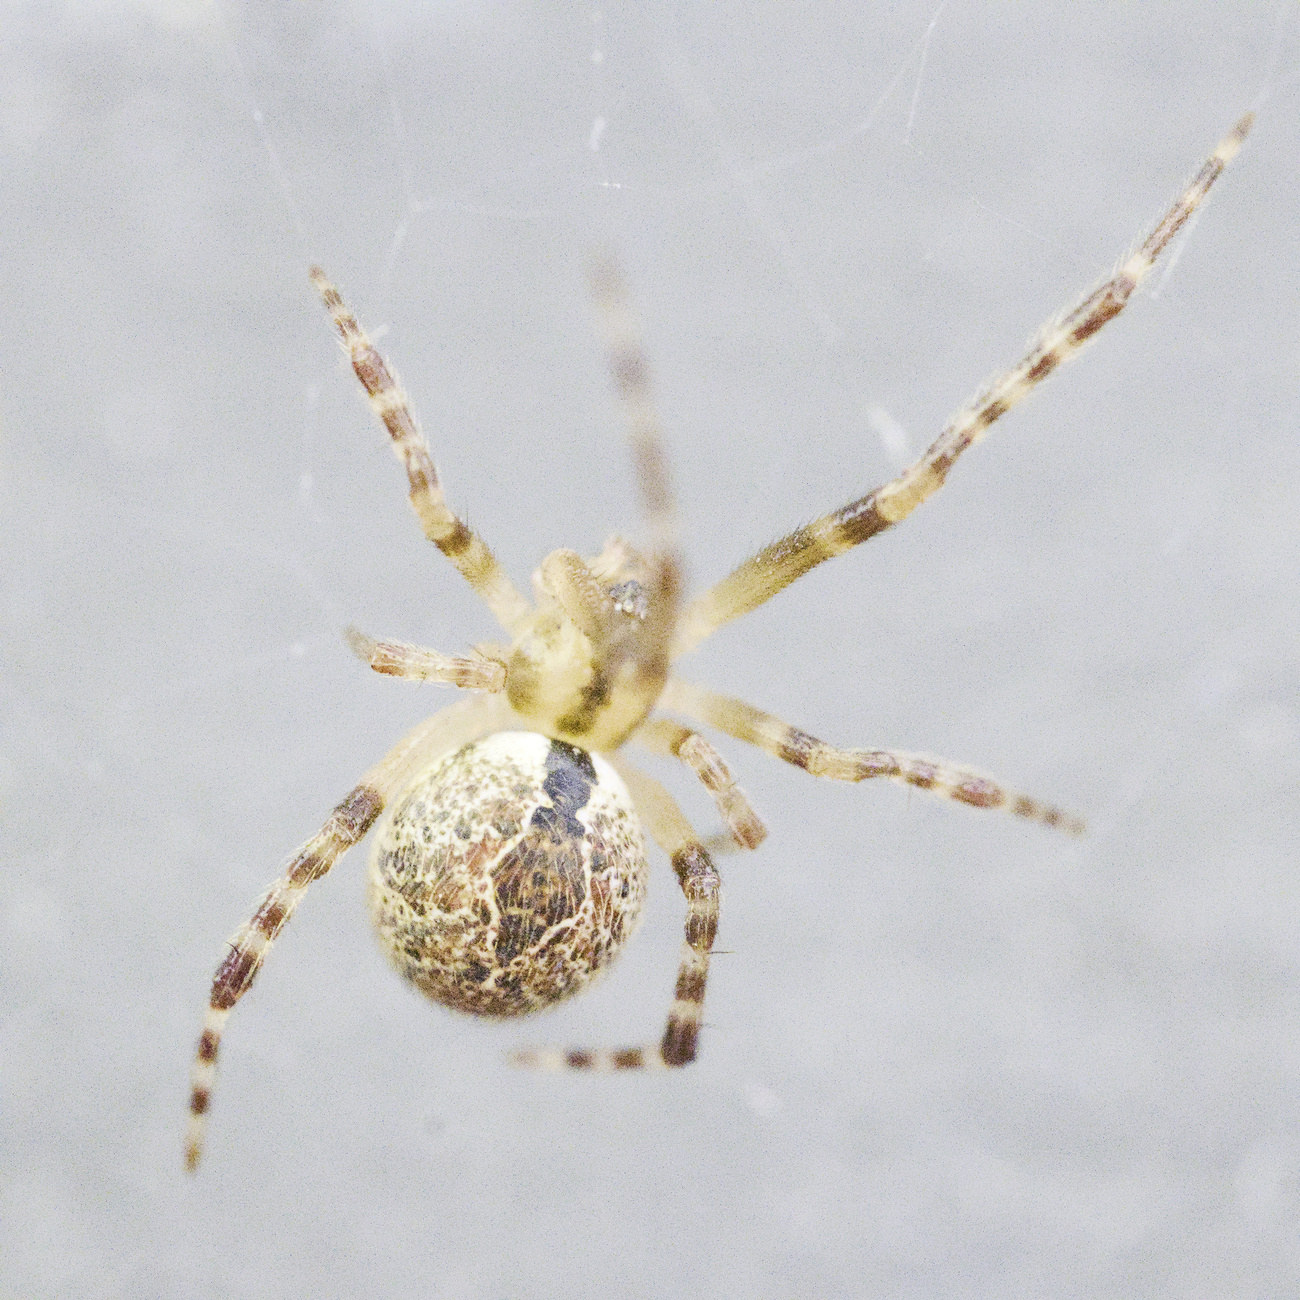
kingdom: Animalia
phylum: Arthropoda
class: Arachnida
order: Araneae
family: Theridiidae
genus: Cryptachaea
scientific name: Cryptachaea veruculata
